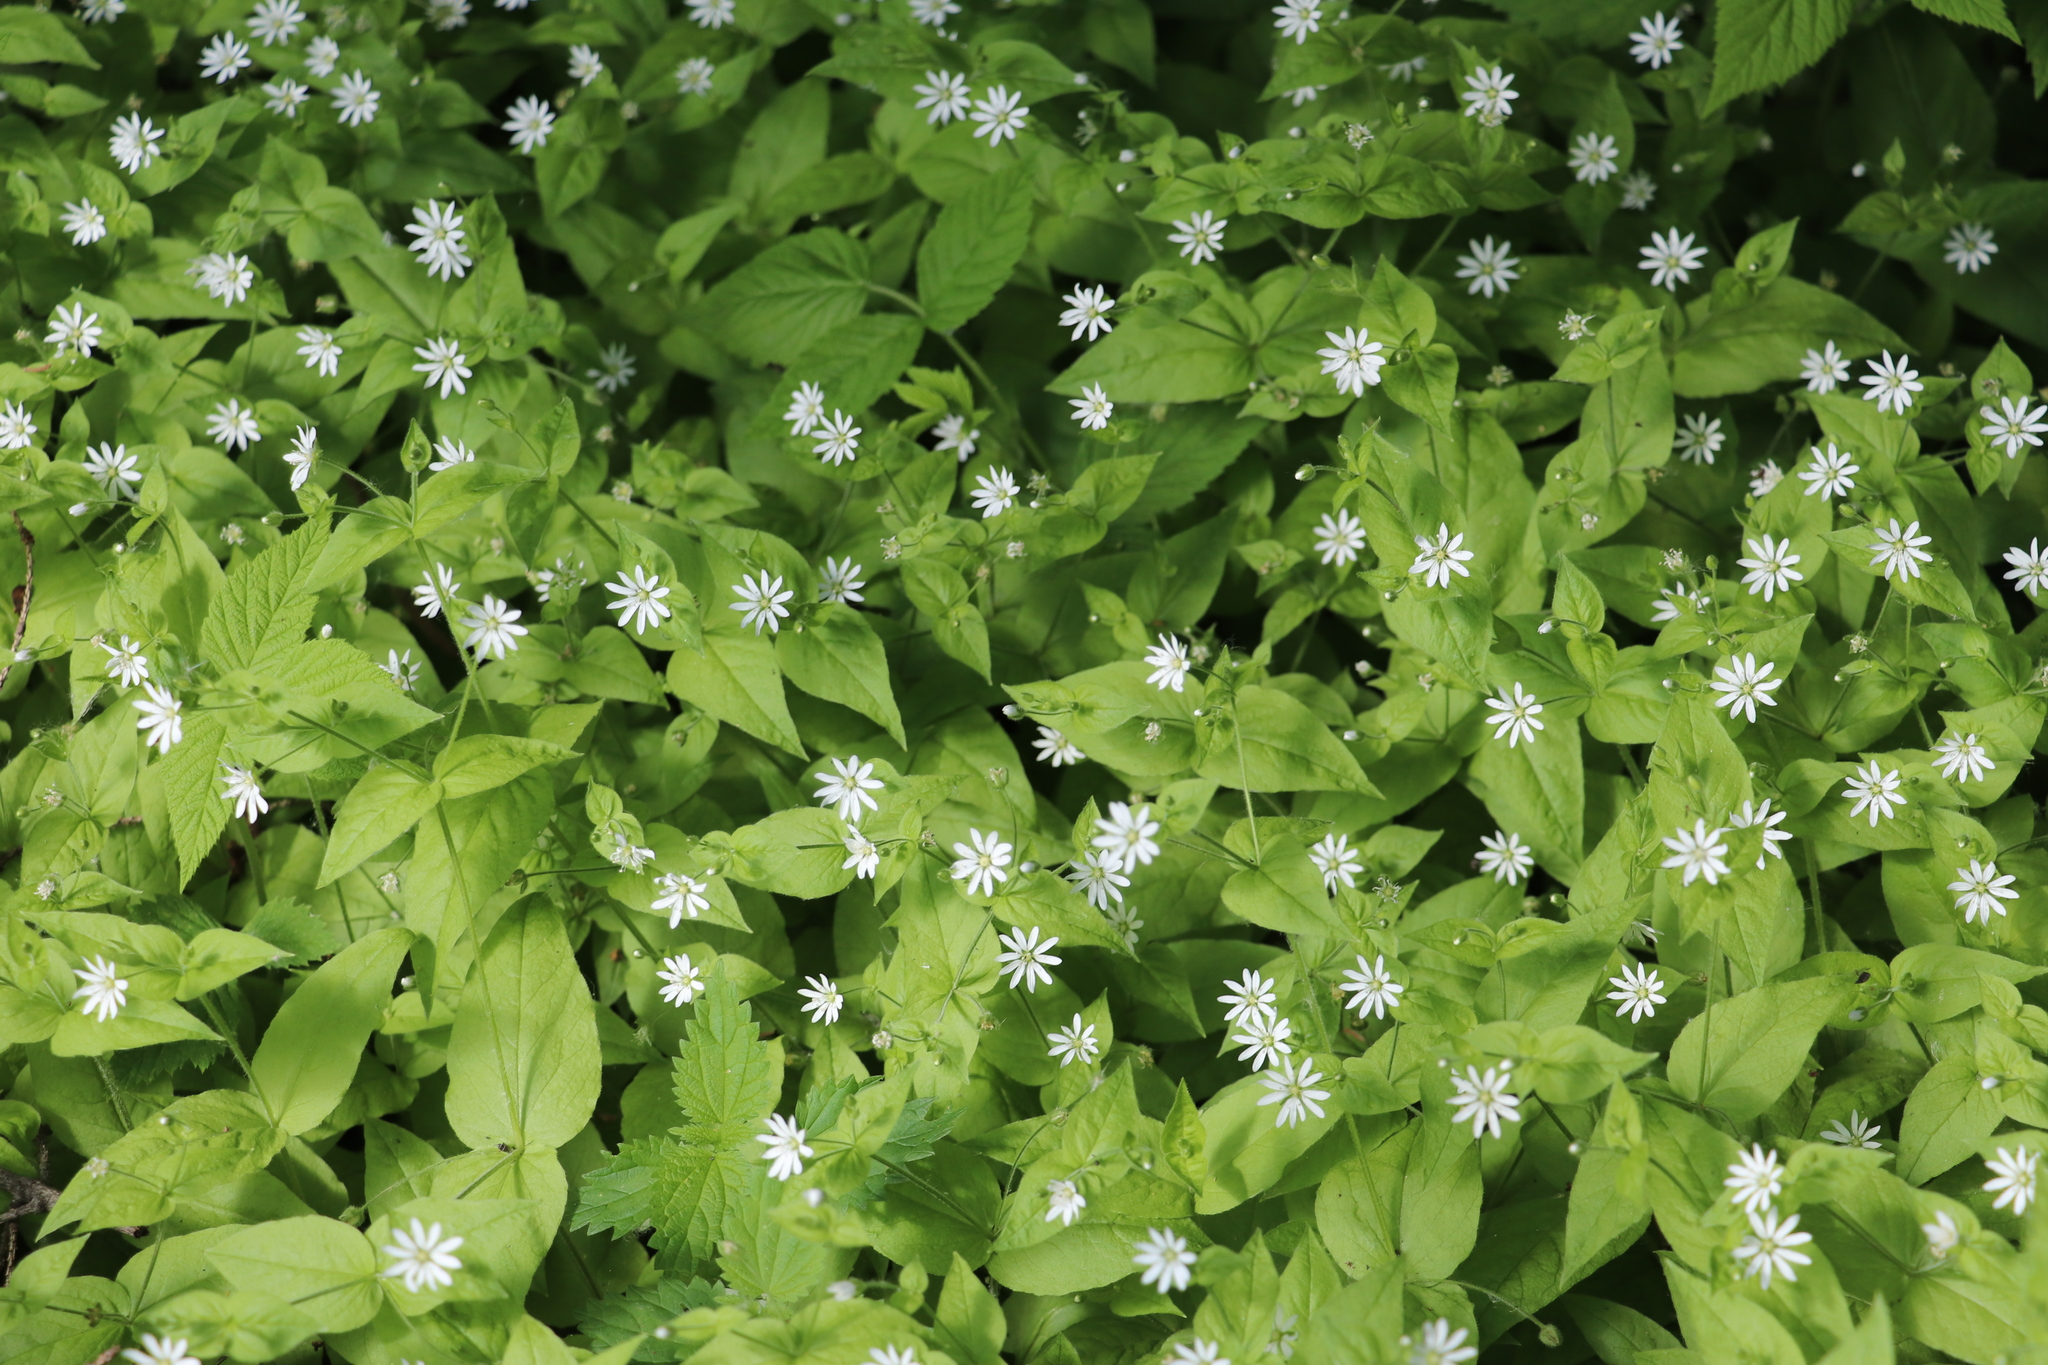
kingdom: Plantae
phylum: Tracheophyta
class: Magnoliopsida
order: Caryophyllales
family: Caryophyllaceae
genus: Stellaria
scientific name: Stellaria bungeana
